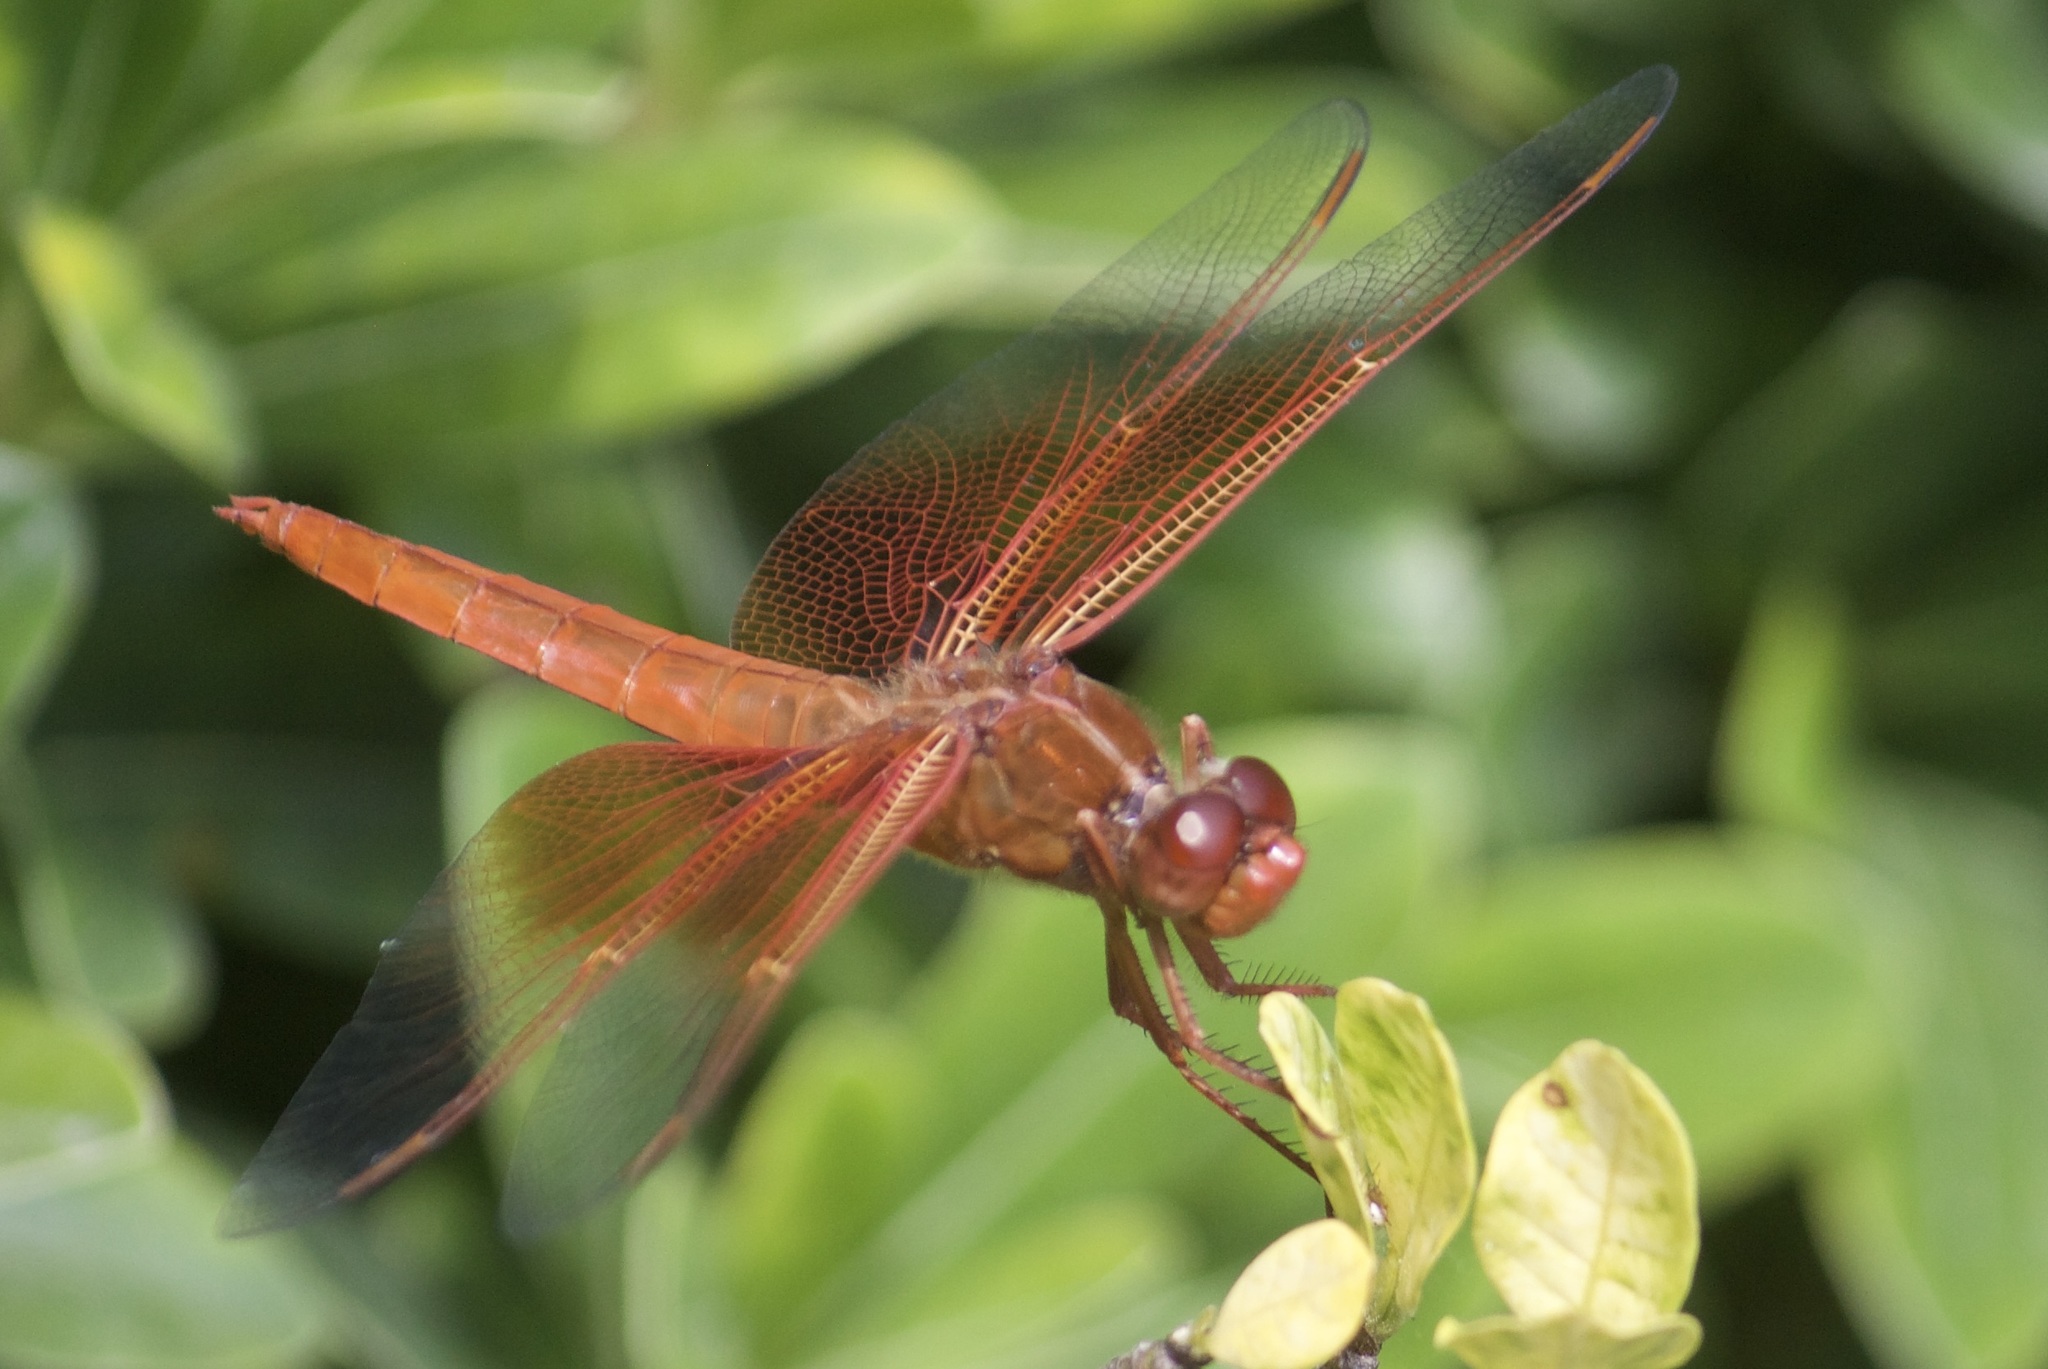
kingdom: Animalia
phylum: Arthropoda
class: Insecta
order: Odonata
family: Libellulidae
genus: Libellula
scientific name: Libellula saturata
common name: Flame skimmer
